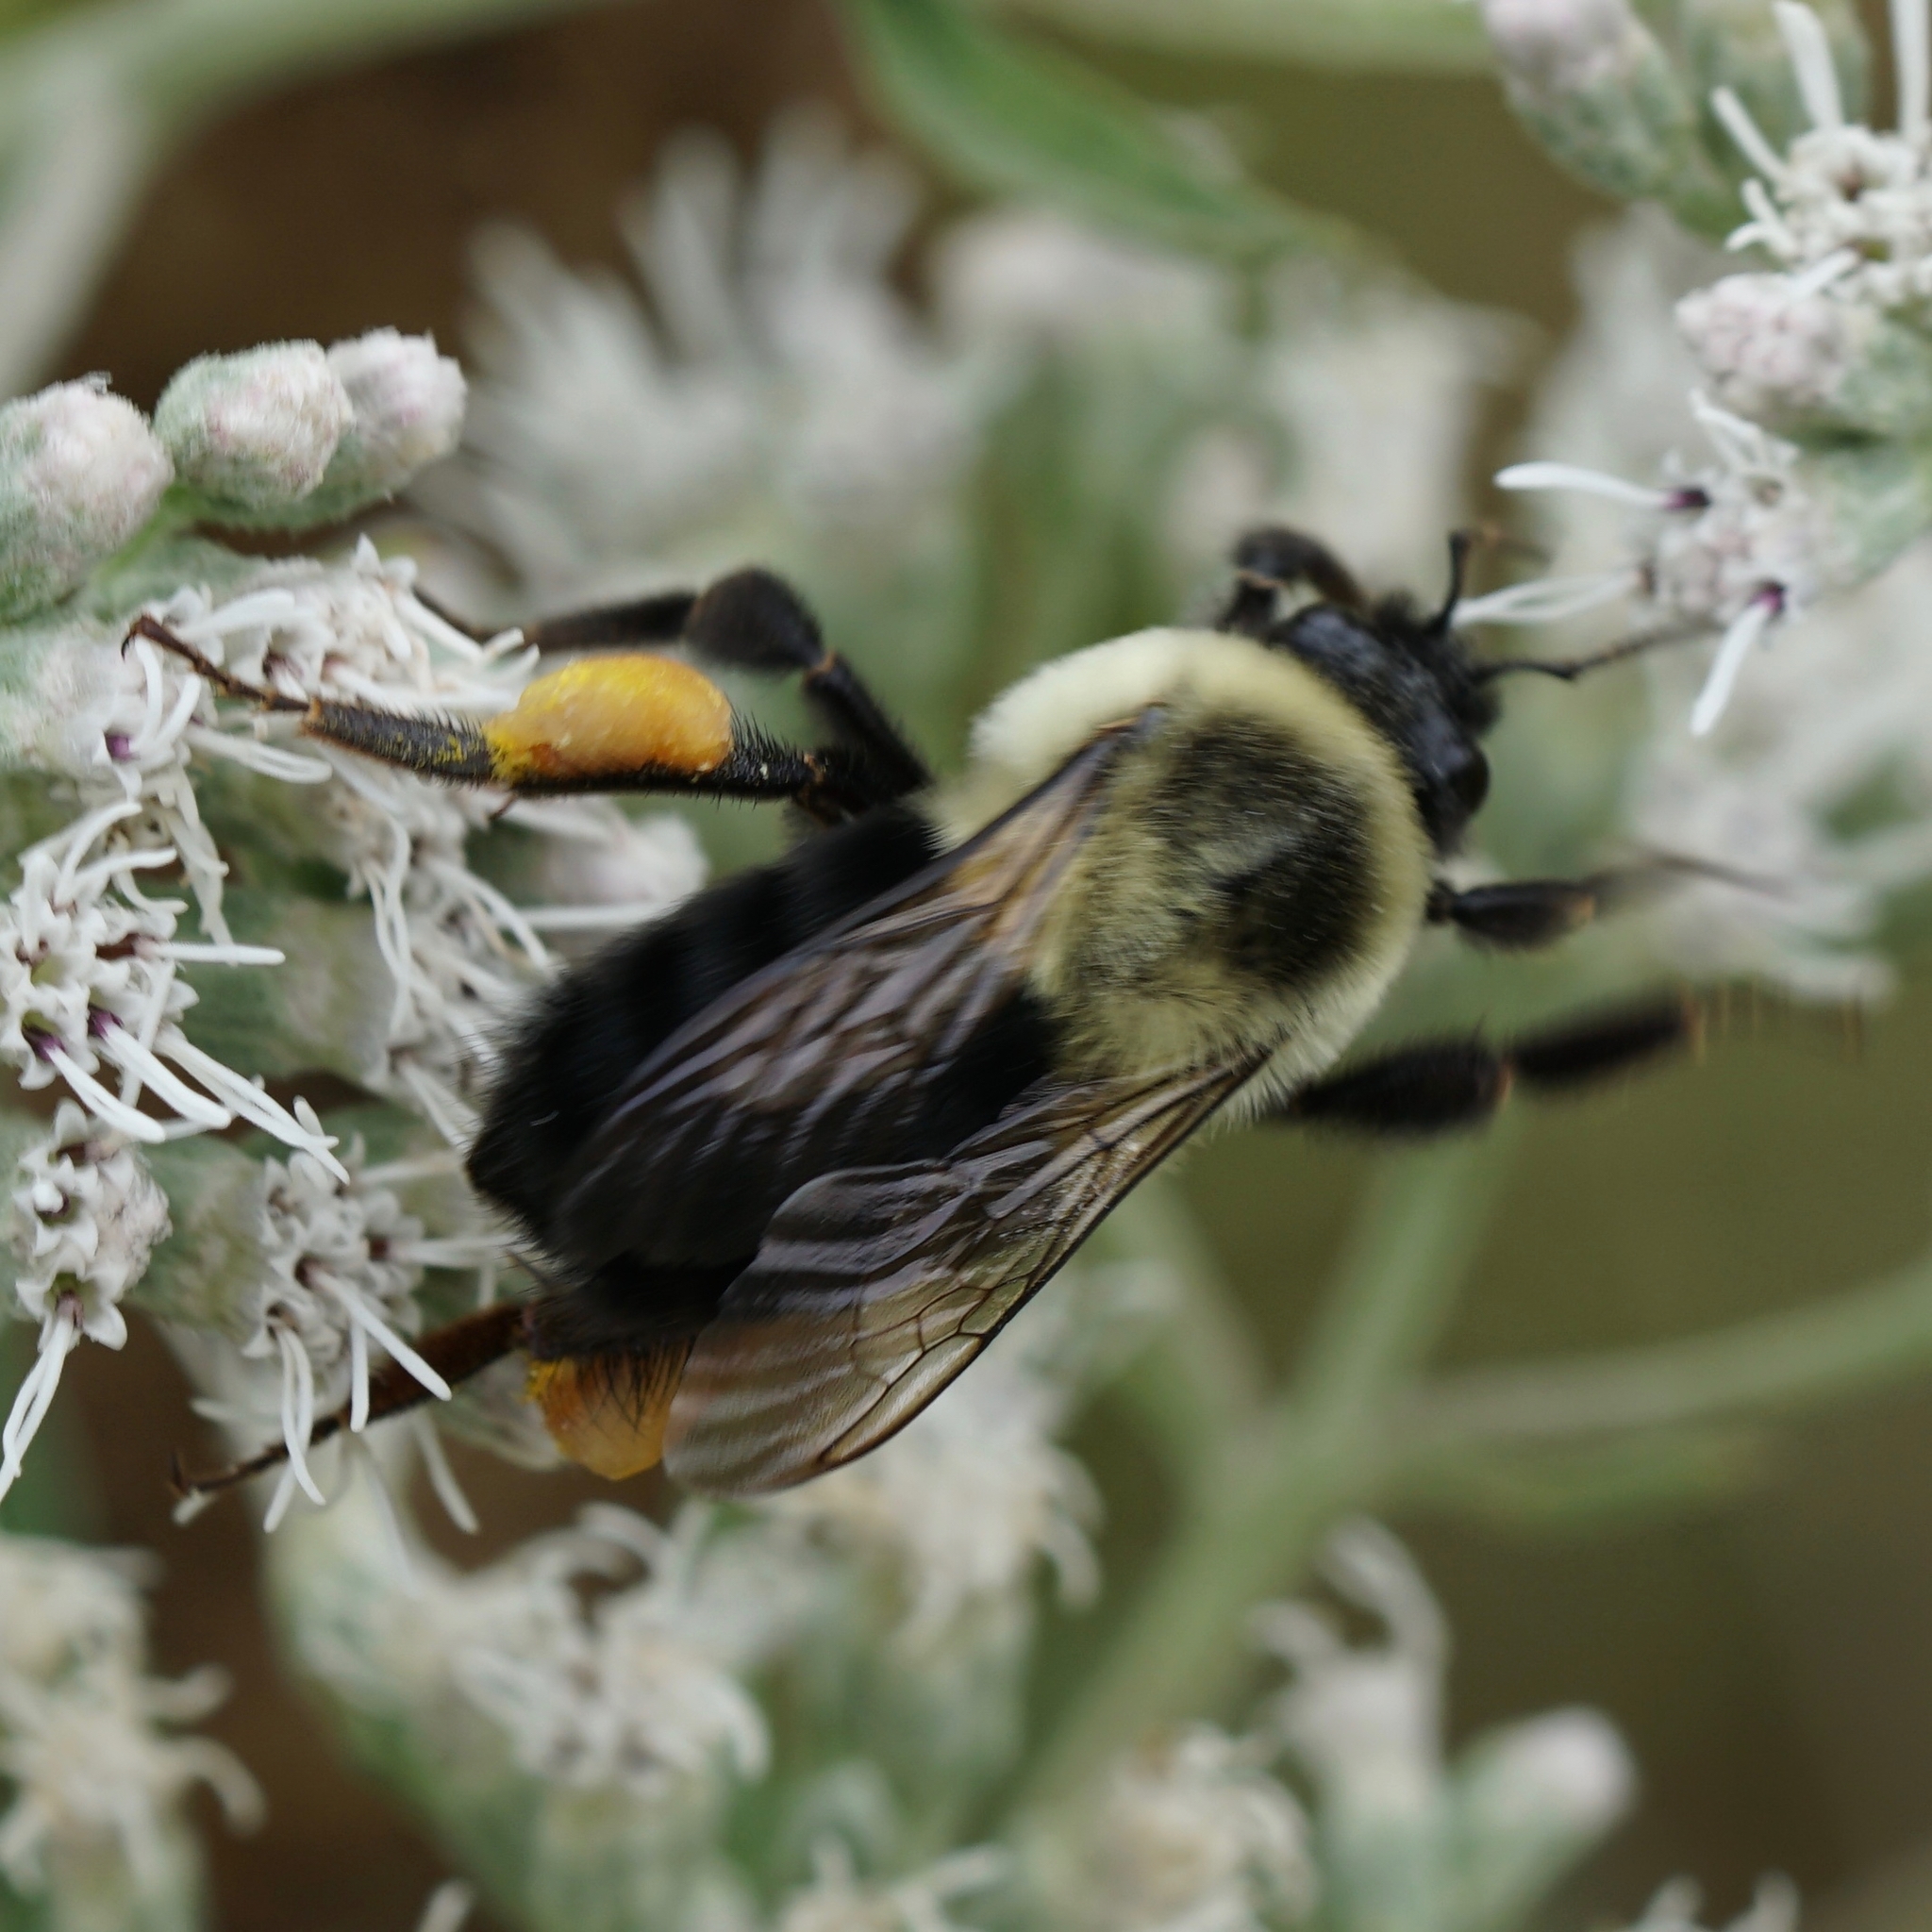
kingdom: Animalia
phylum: Arthropoda
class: Insecta
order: Hymenoptera
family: Apidae
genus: Bombus
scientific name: Bombus impatiens
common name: Common eastern bumble bee
